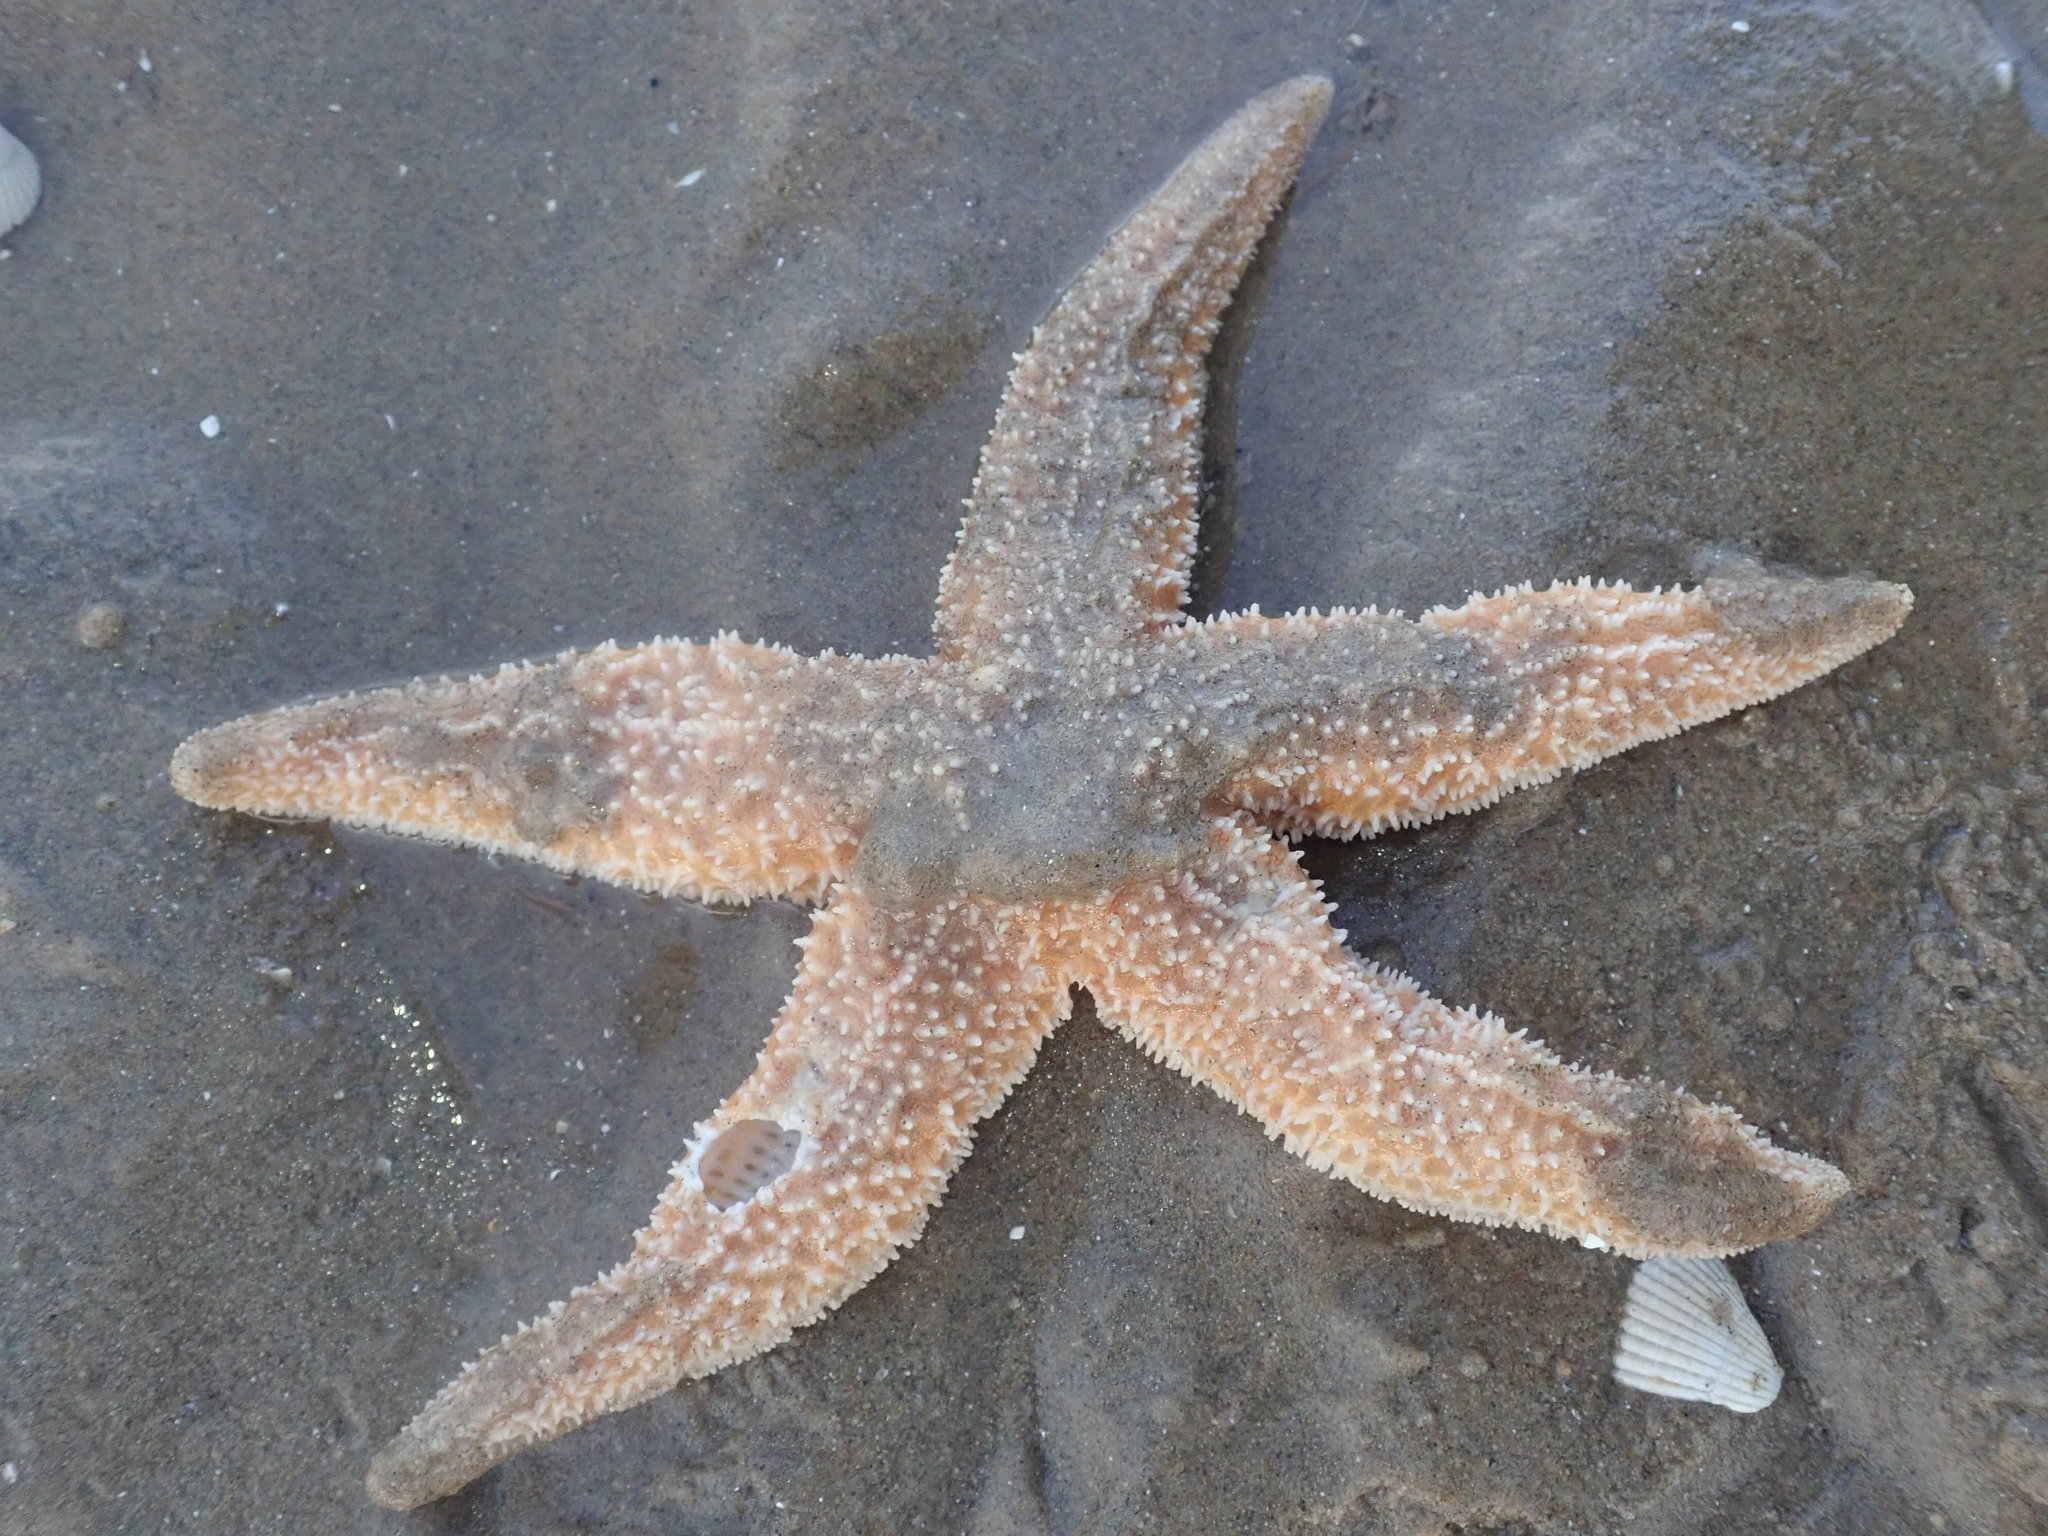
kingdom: Animalia
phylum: Echinodermata
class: Asteroidea
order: Forcipulatida
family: Asteriidae
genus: Asterias
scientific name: Asterias rubens
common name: Common starfish
